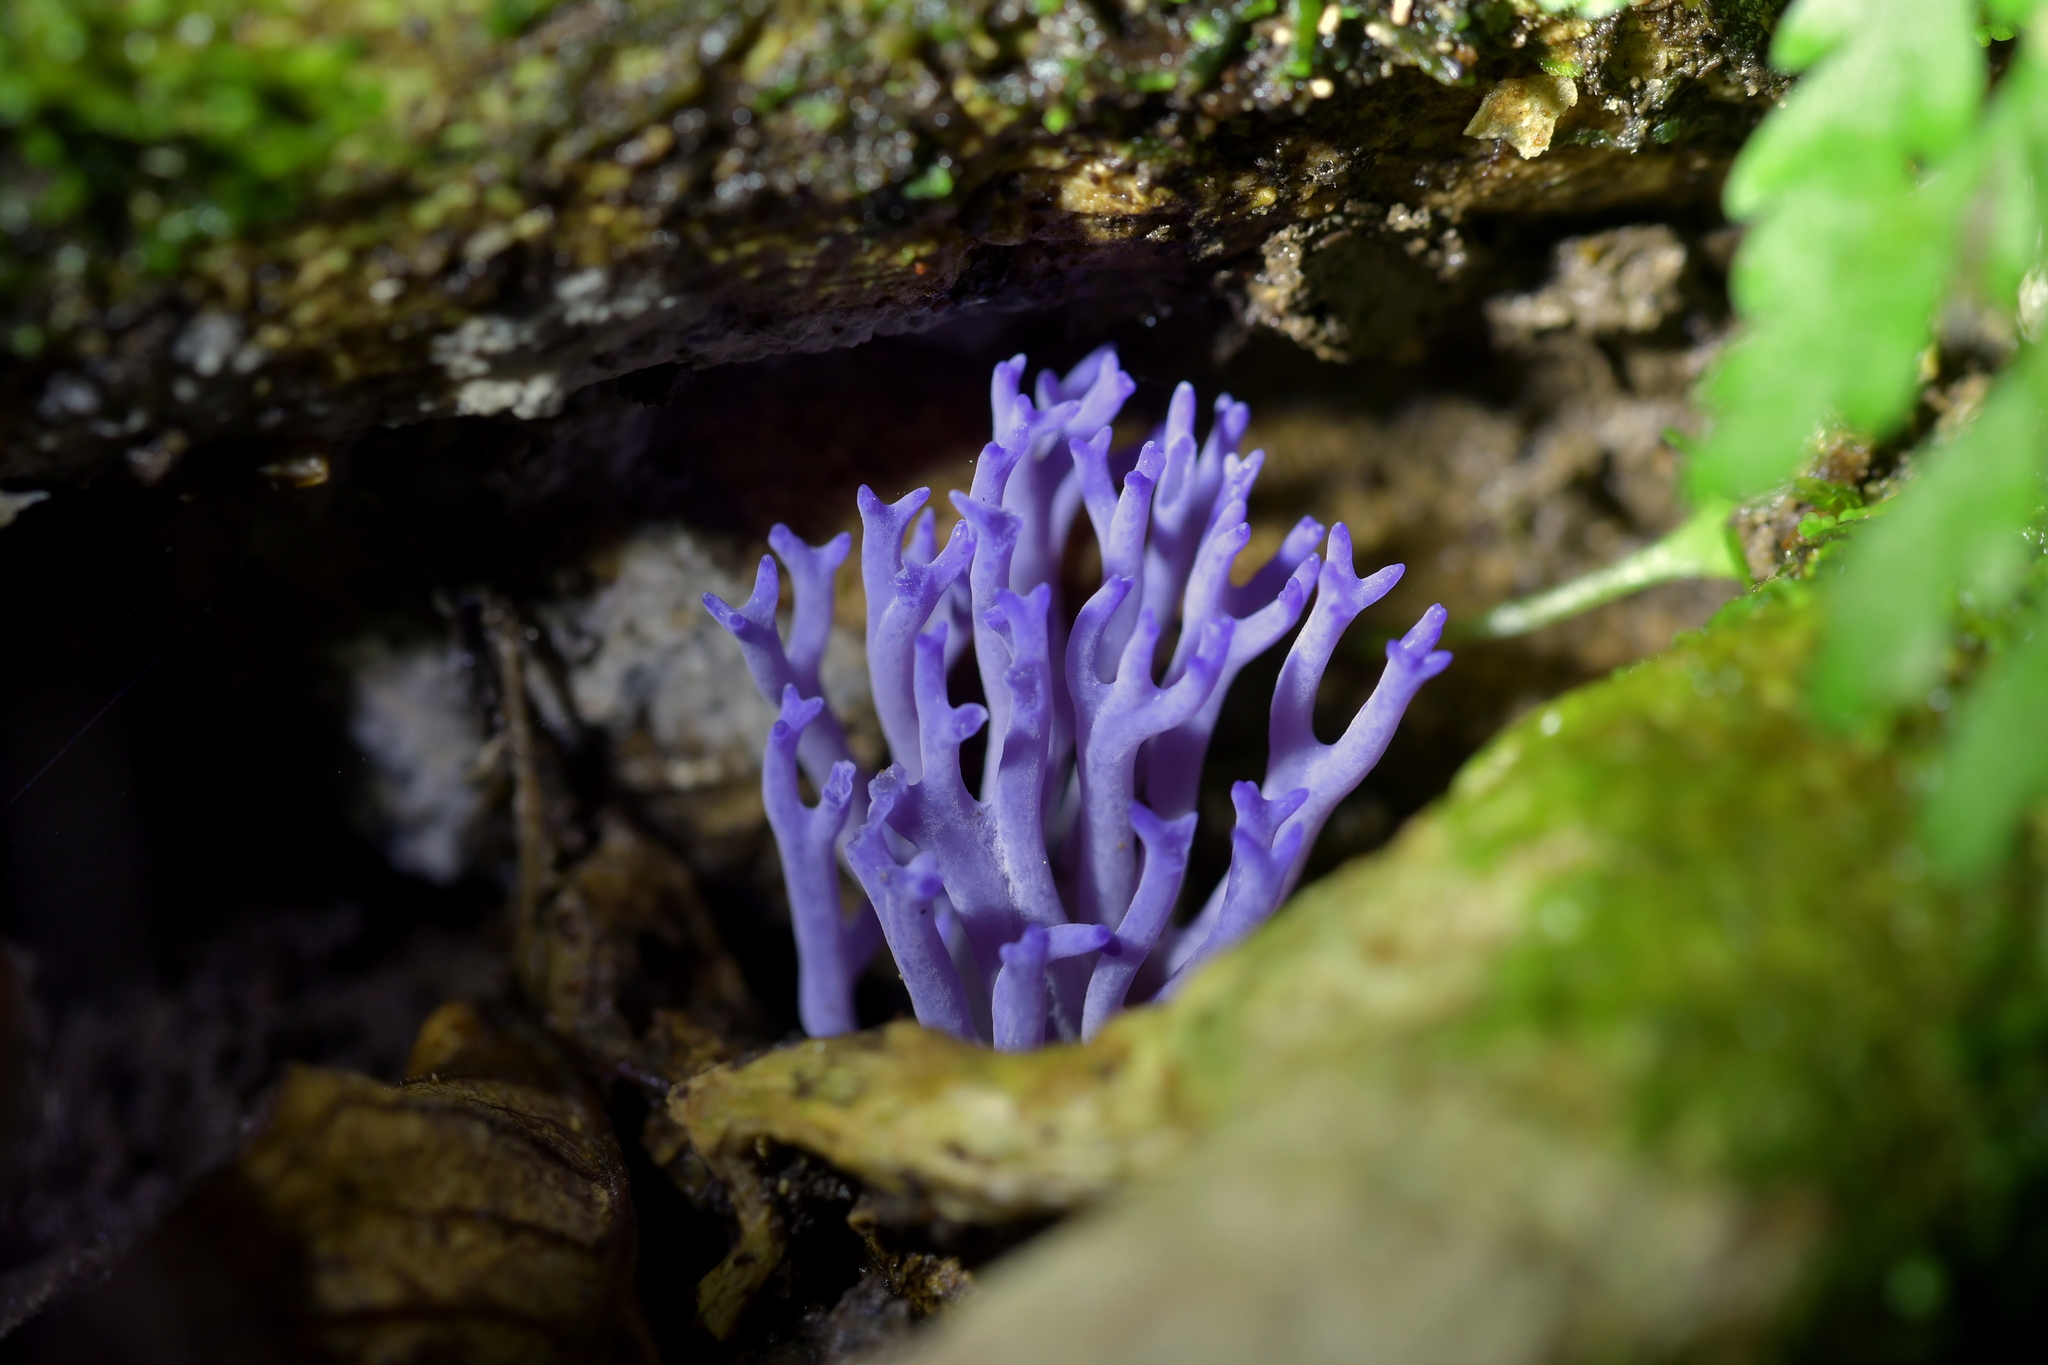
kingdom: Fungi
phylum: Basidiomycota
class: Agaricomycetes
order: Agaricales
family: Clavariaceae
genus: Ramariopsis
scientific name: Ramariopsis pulchella
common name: Lilac coral
